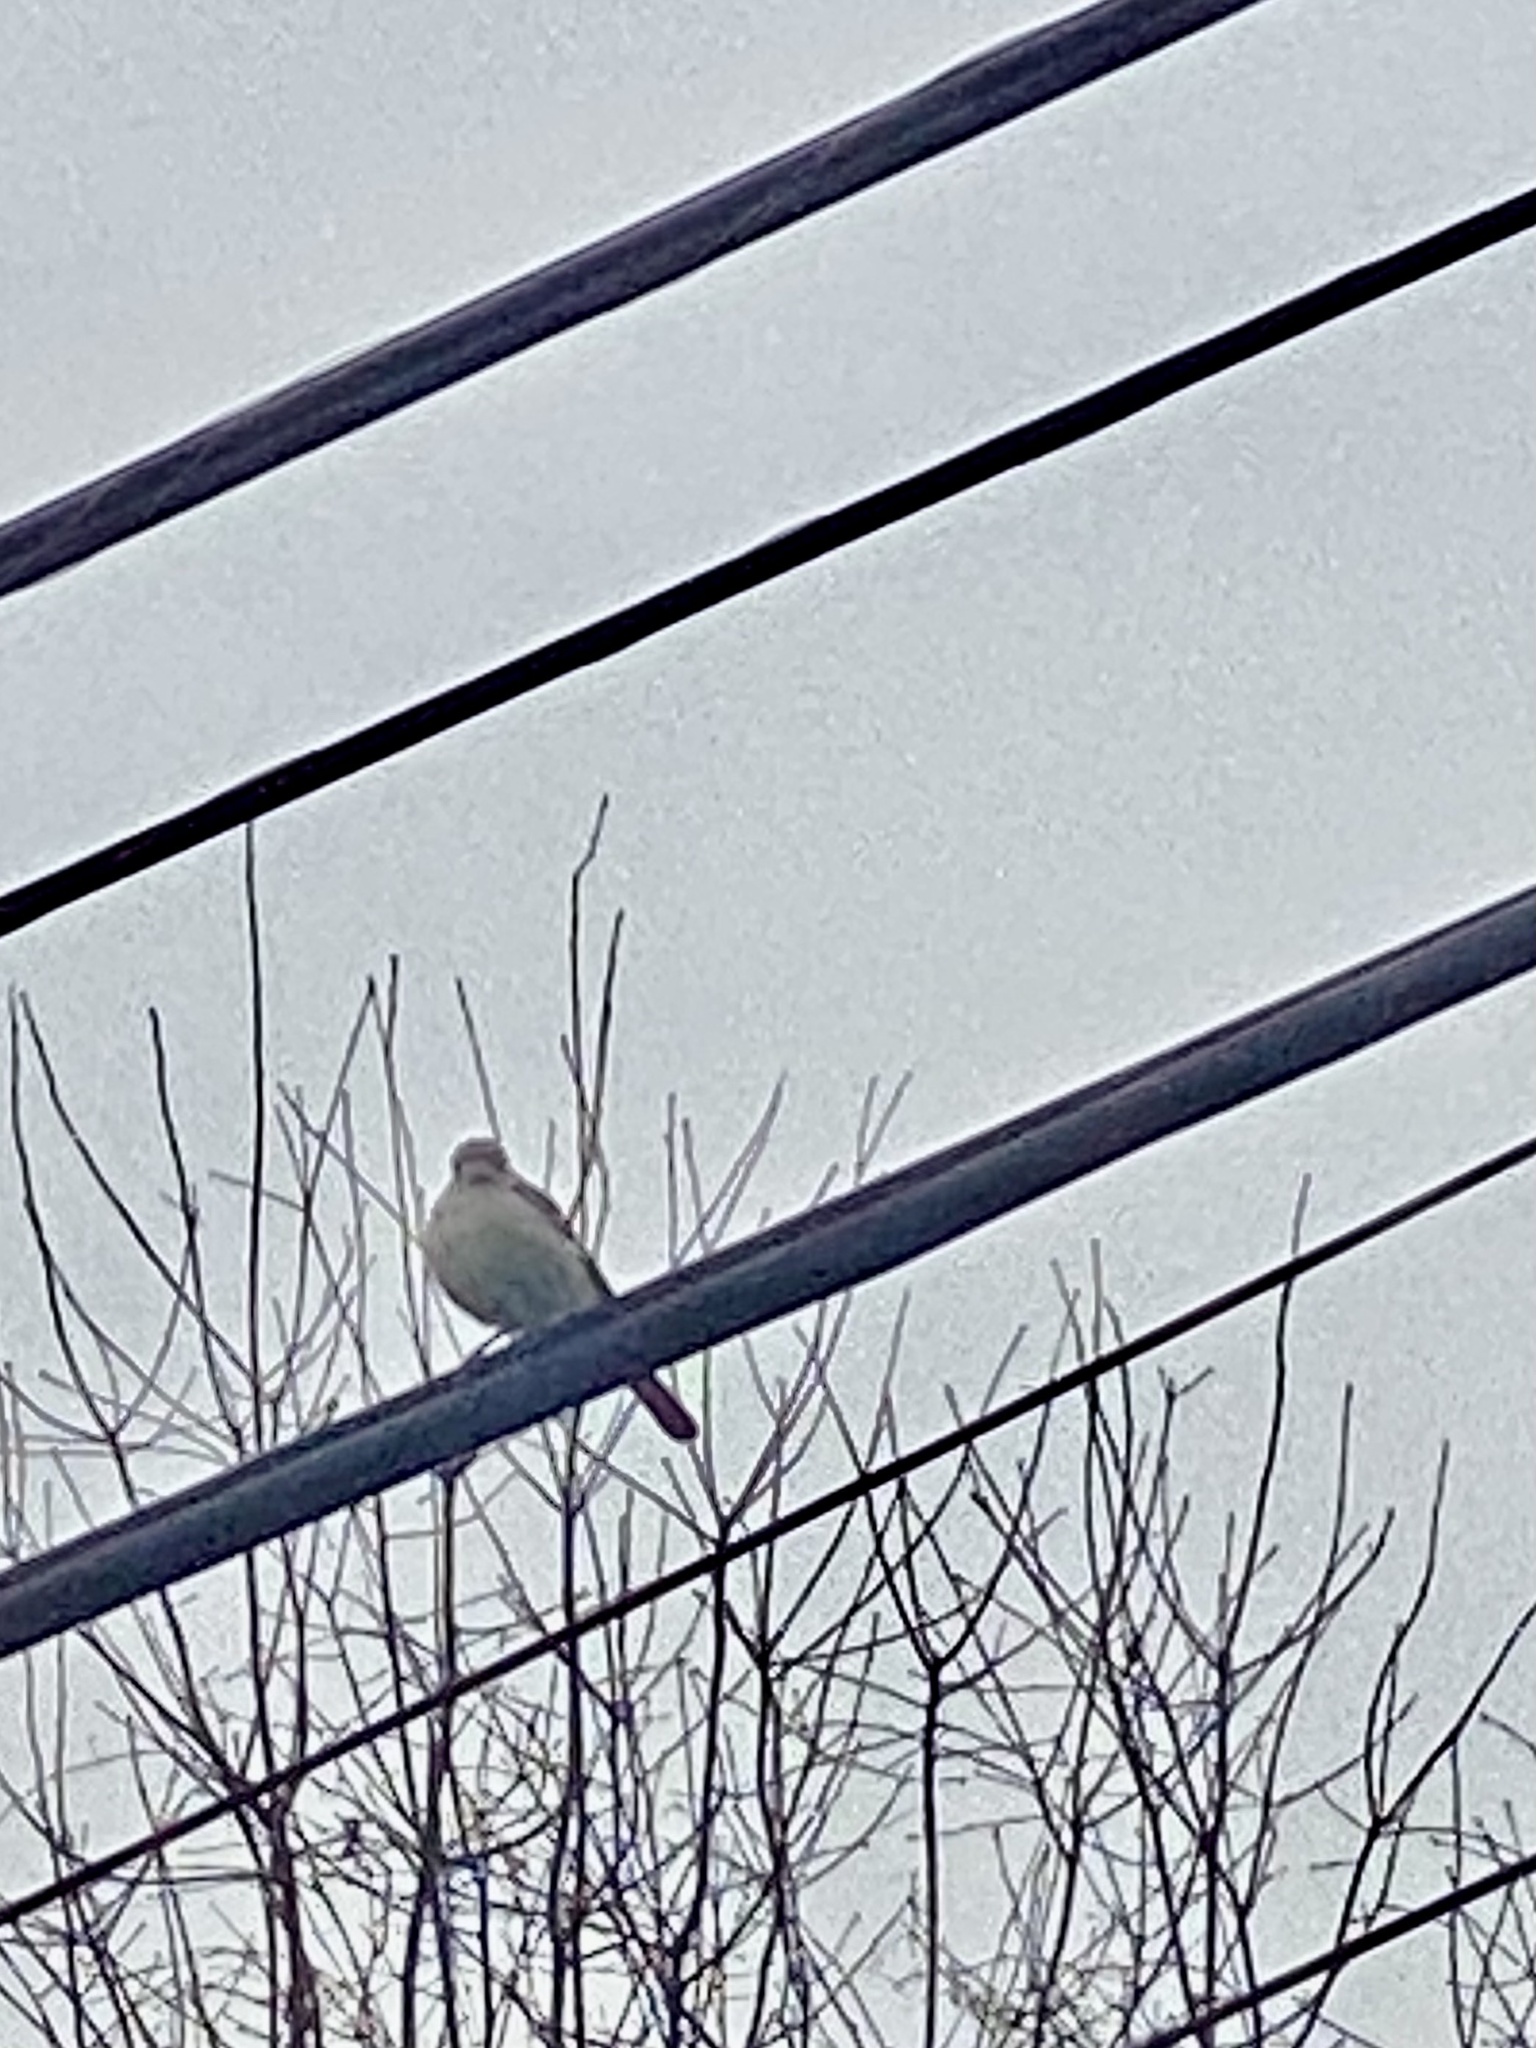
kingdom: Animalia
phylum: Chordata
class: Aves
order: Passeriformes
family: Mimidae
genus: Mimus
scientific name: Mimus polyglottos
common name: Northern mockingbird
